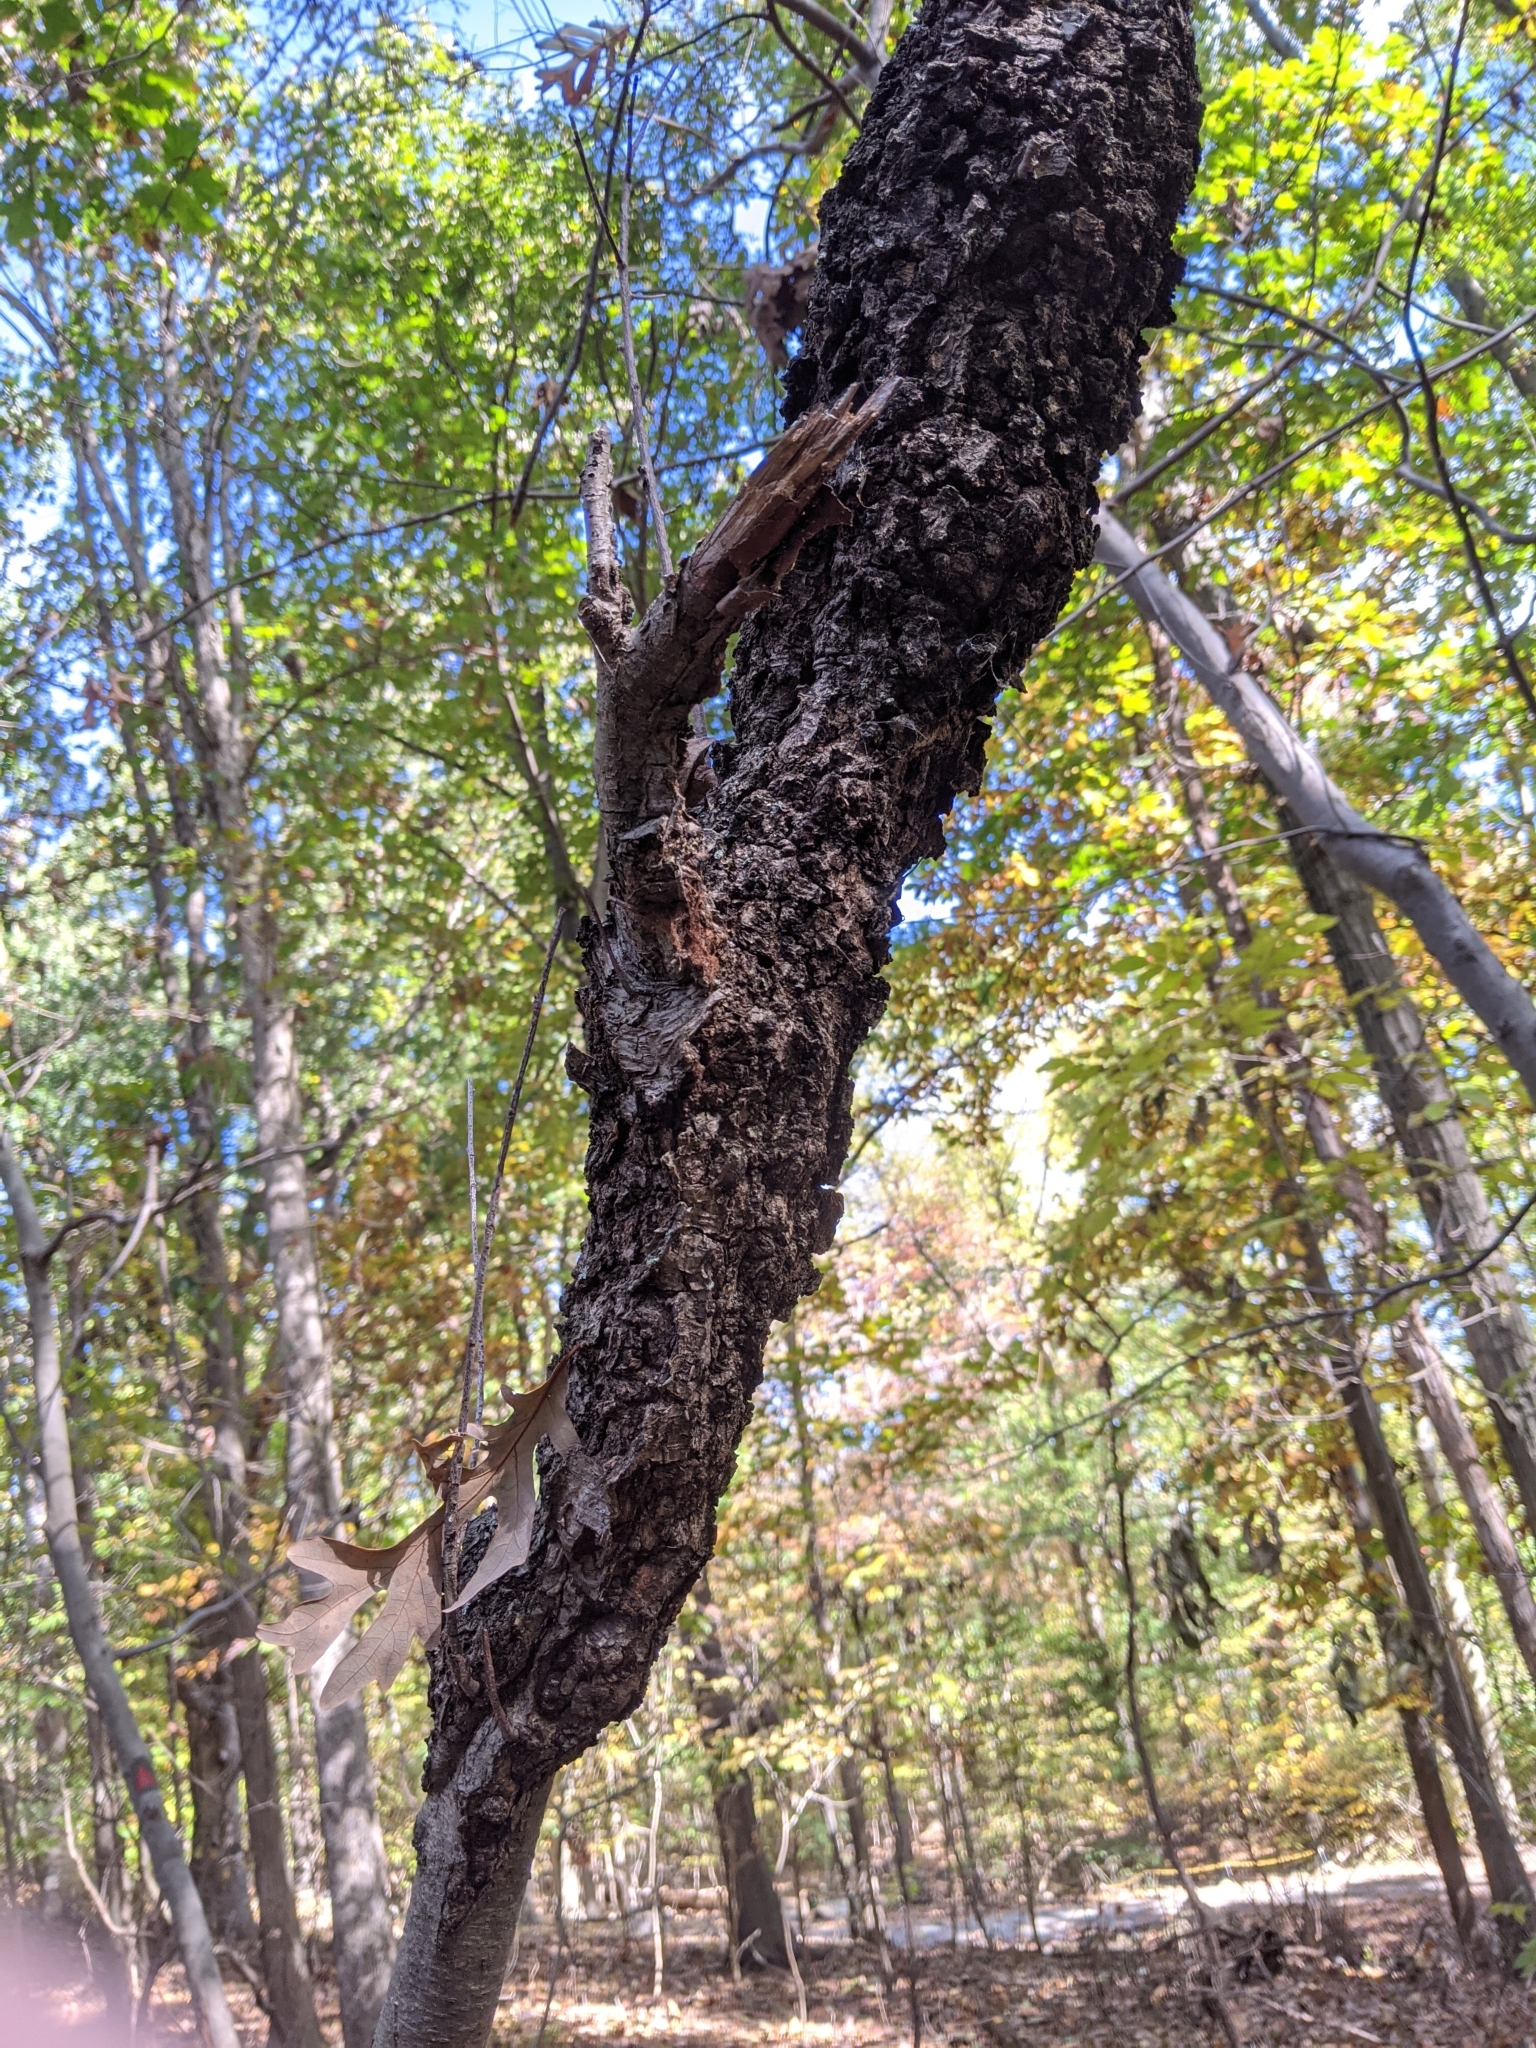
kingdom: Fungi
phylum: Ascomycota
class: Dothideomycetes
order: Venturiales
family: Venturiaceae
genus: Apiosporina
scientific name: Apiosporina morbosa
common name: Black knot
